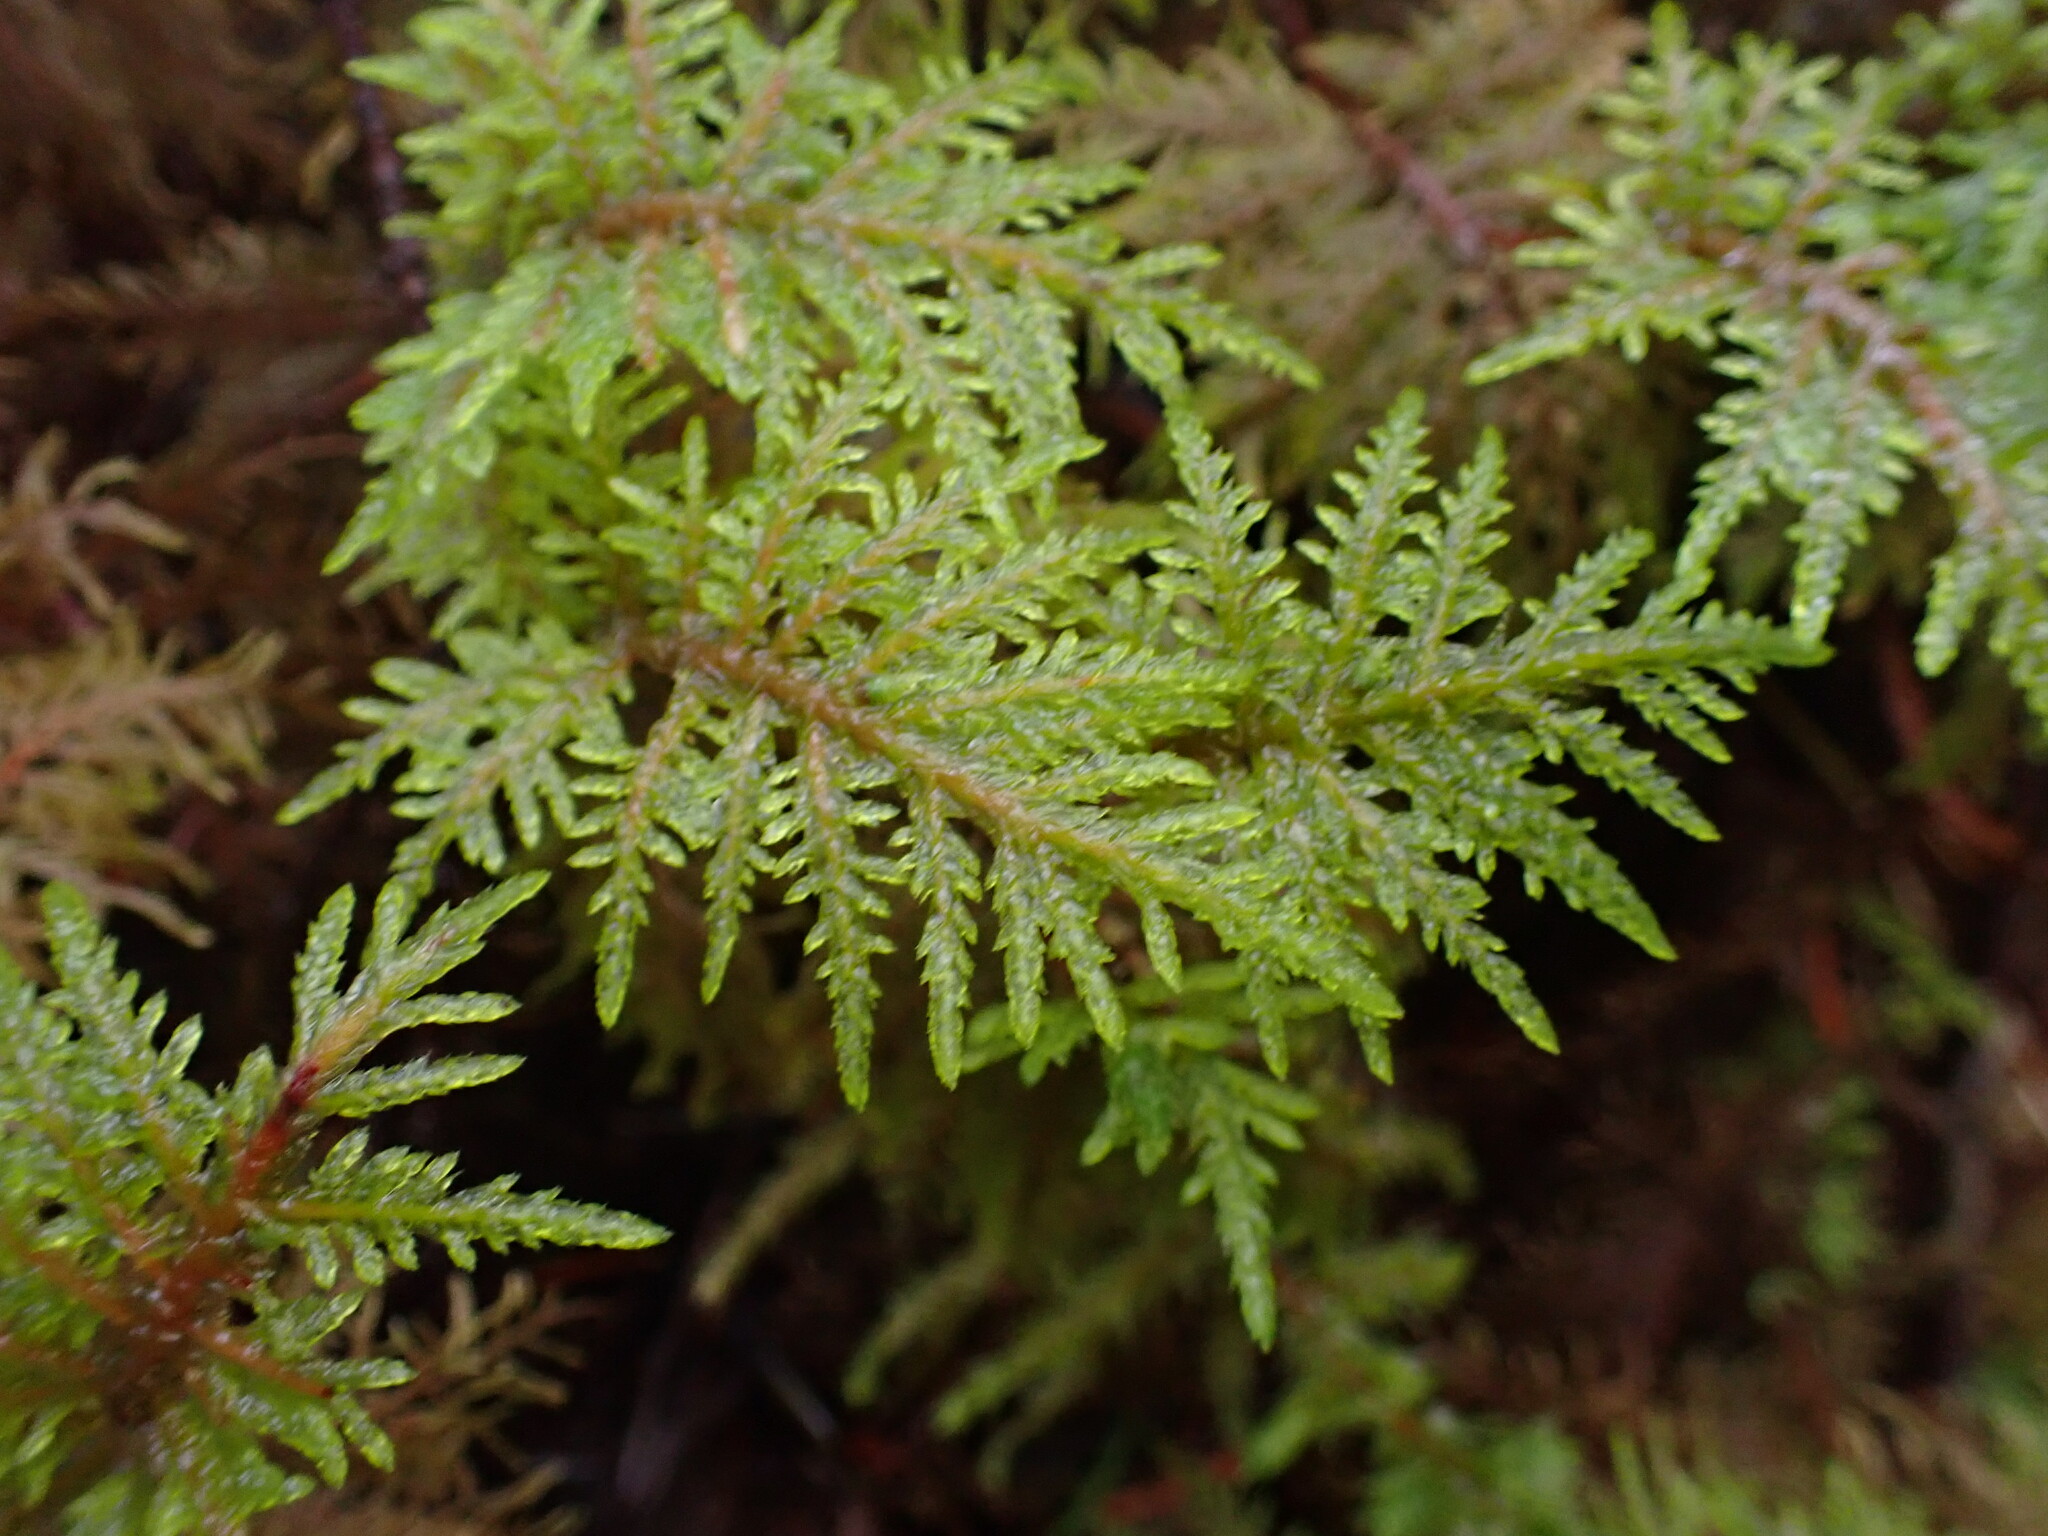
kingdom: Plantae
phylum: Bryophyta
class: Bryopsida
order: Hypnales
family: Hylocomiaceae
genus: Hylocomium
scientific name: Hylocomium splendens
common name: Stairstep moss
